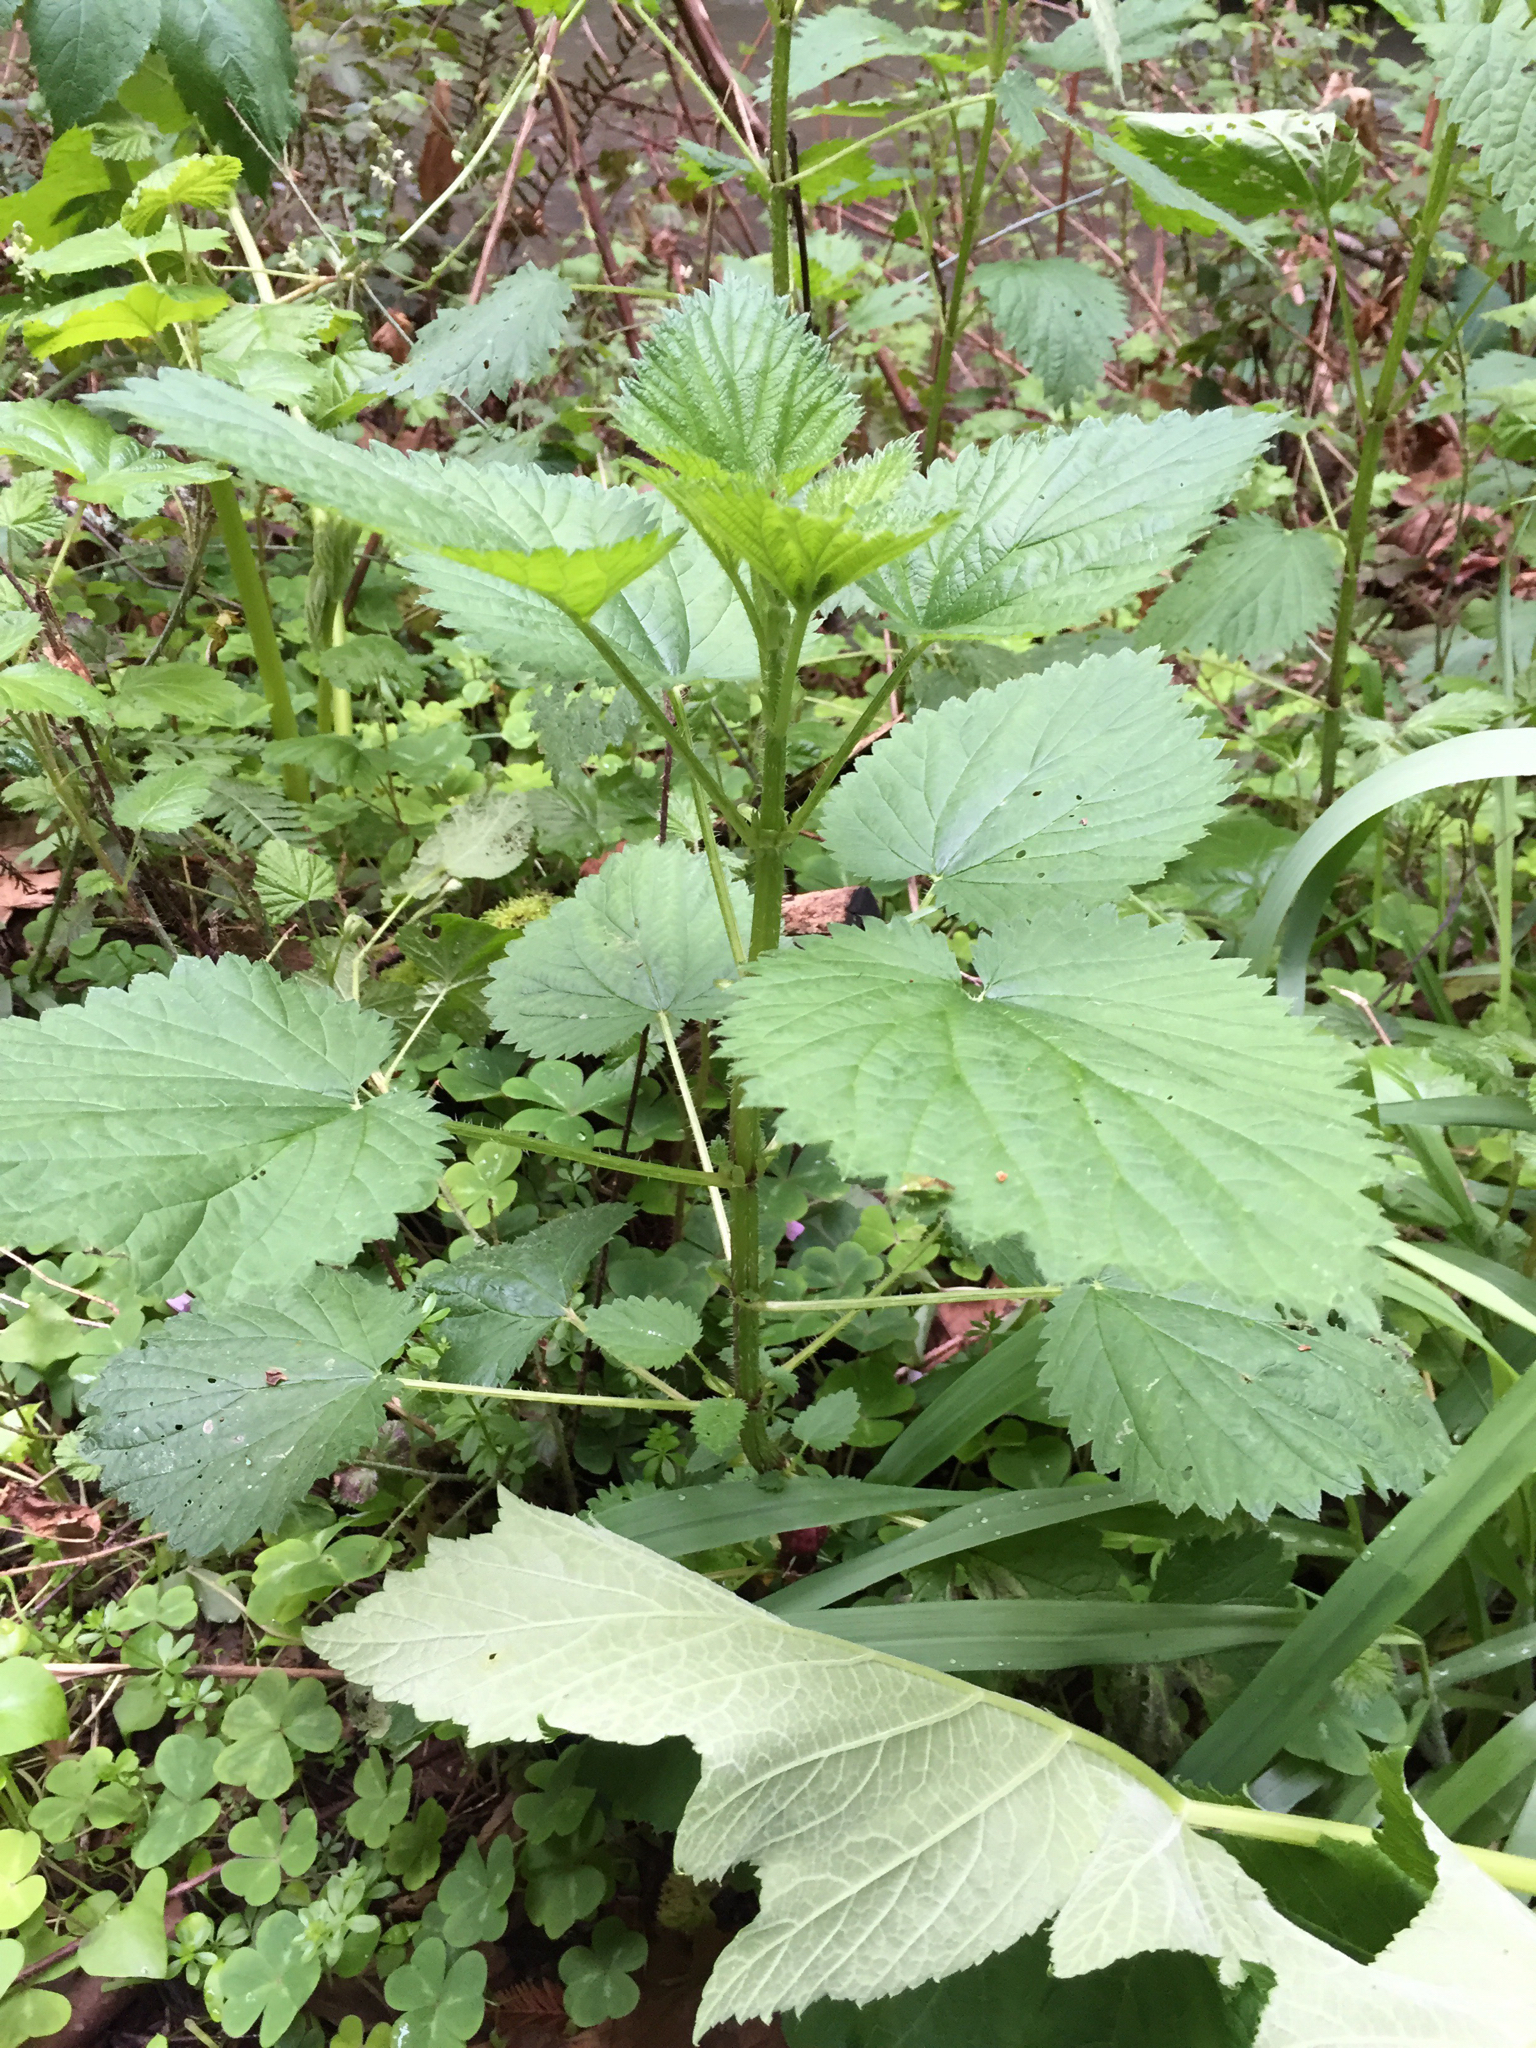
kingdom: Plantae
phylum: Tracheophyta
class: Magnoliopsida
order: Rosales
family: Urticaceae
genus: Urtica
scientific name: Urtica dioica
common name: Common nettle
